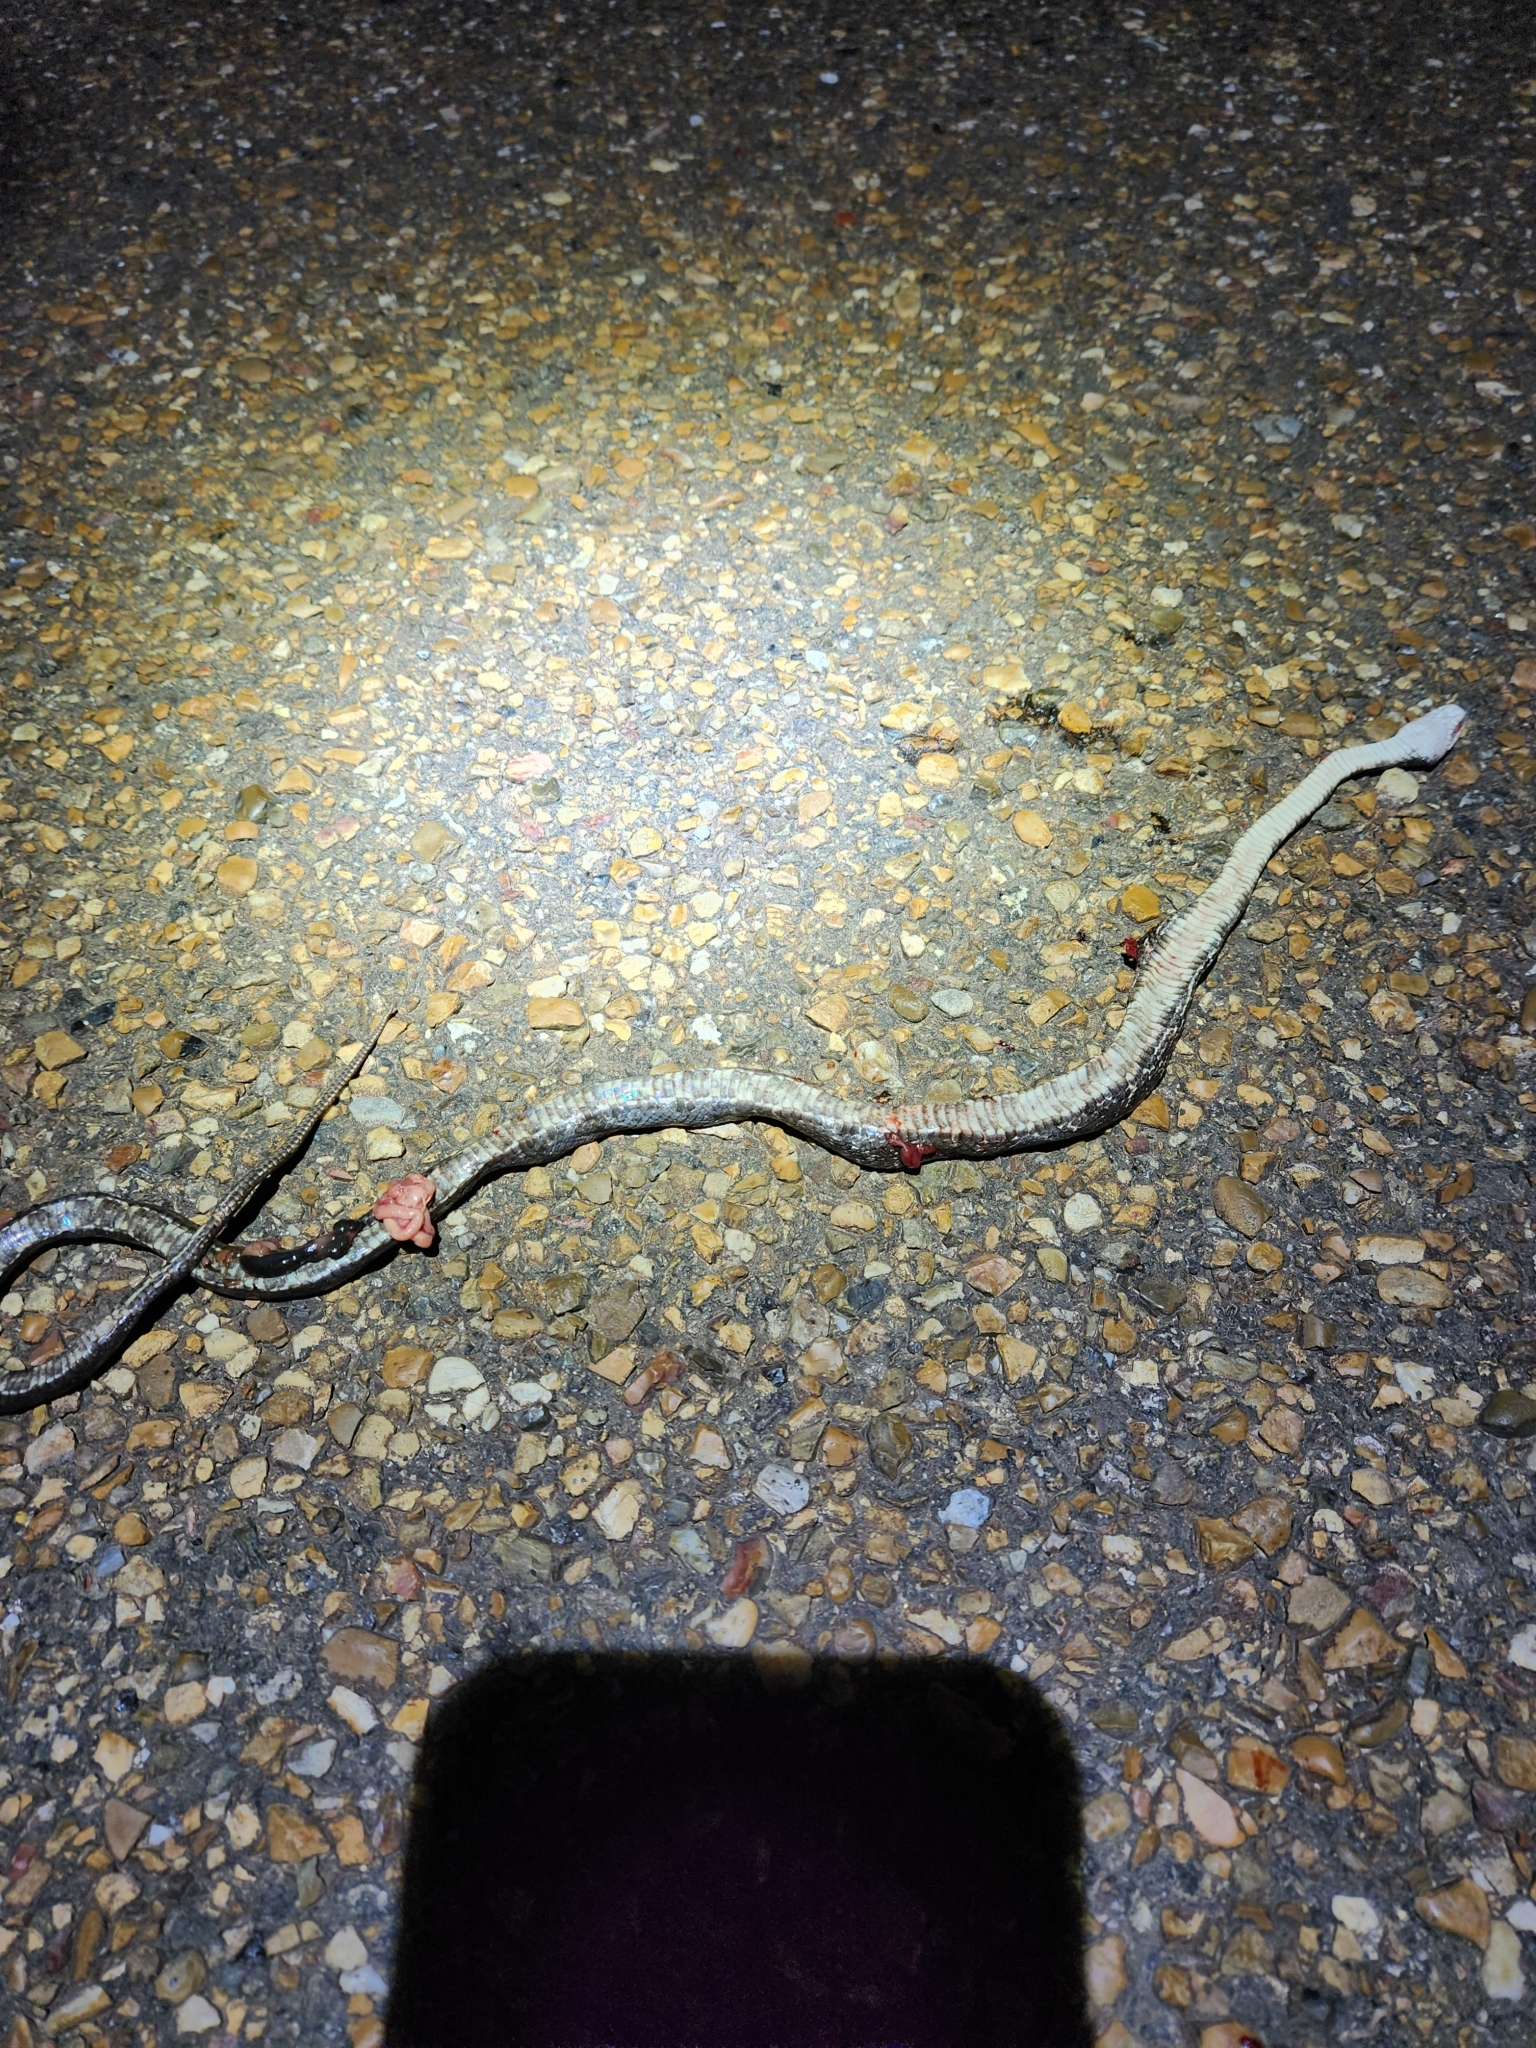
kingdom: Animalia
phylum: Chordata
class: Squamata
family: Colubridae
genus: Pantherophis
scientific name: Pantherophis obsoletus
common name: Black rat snake
